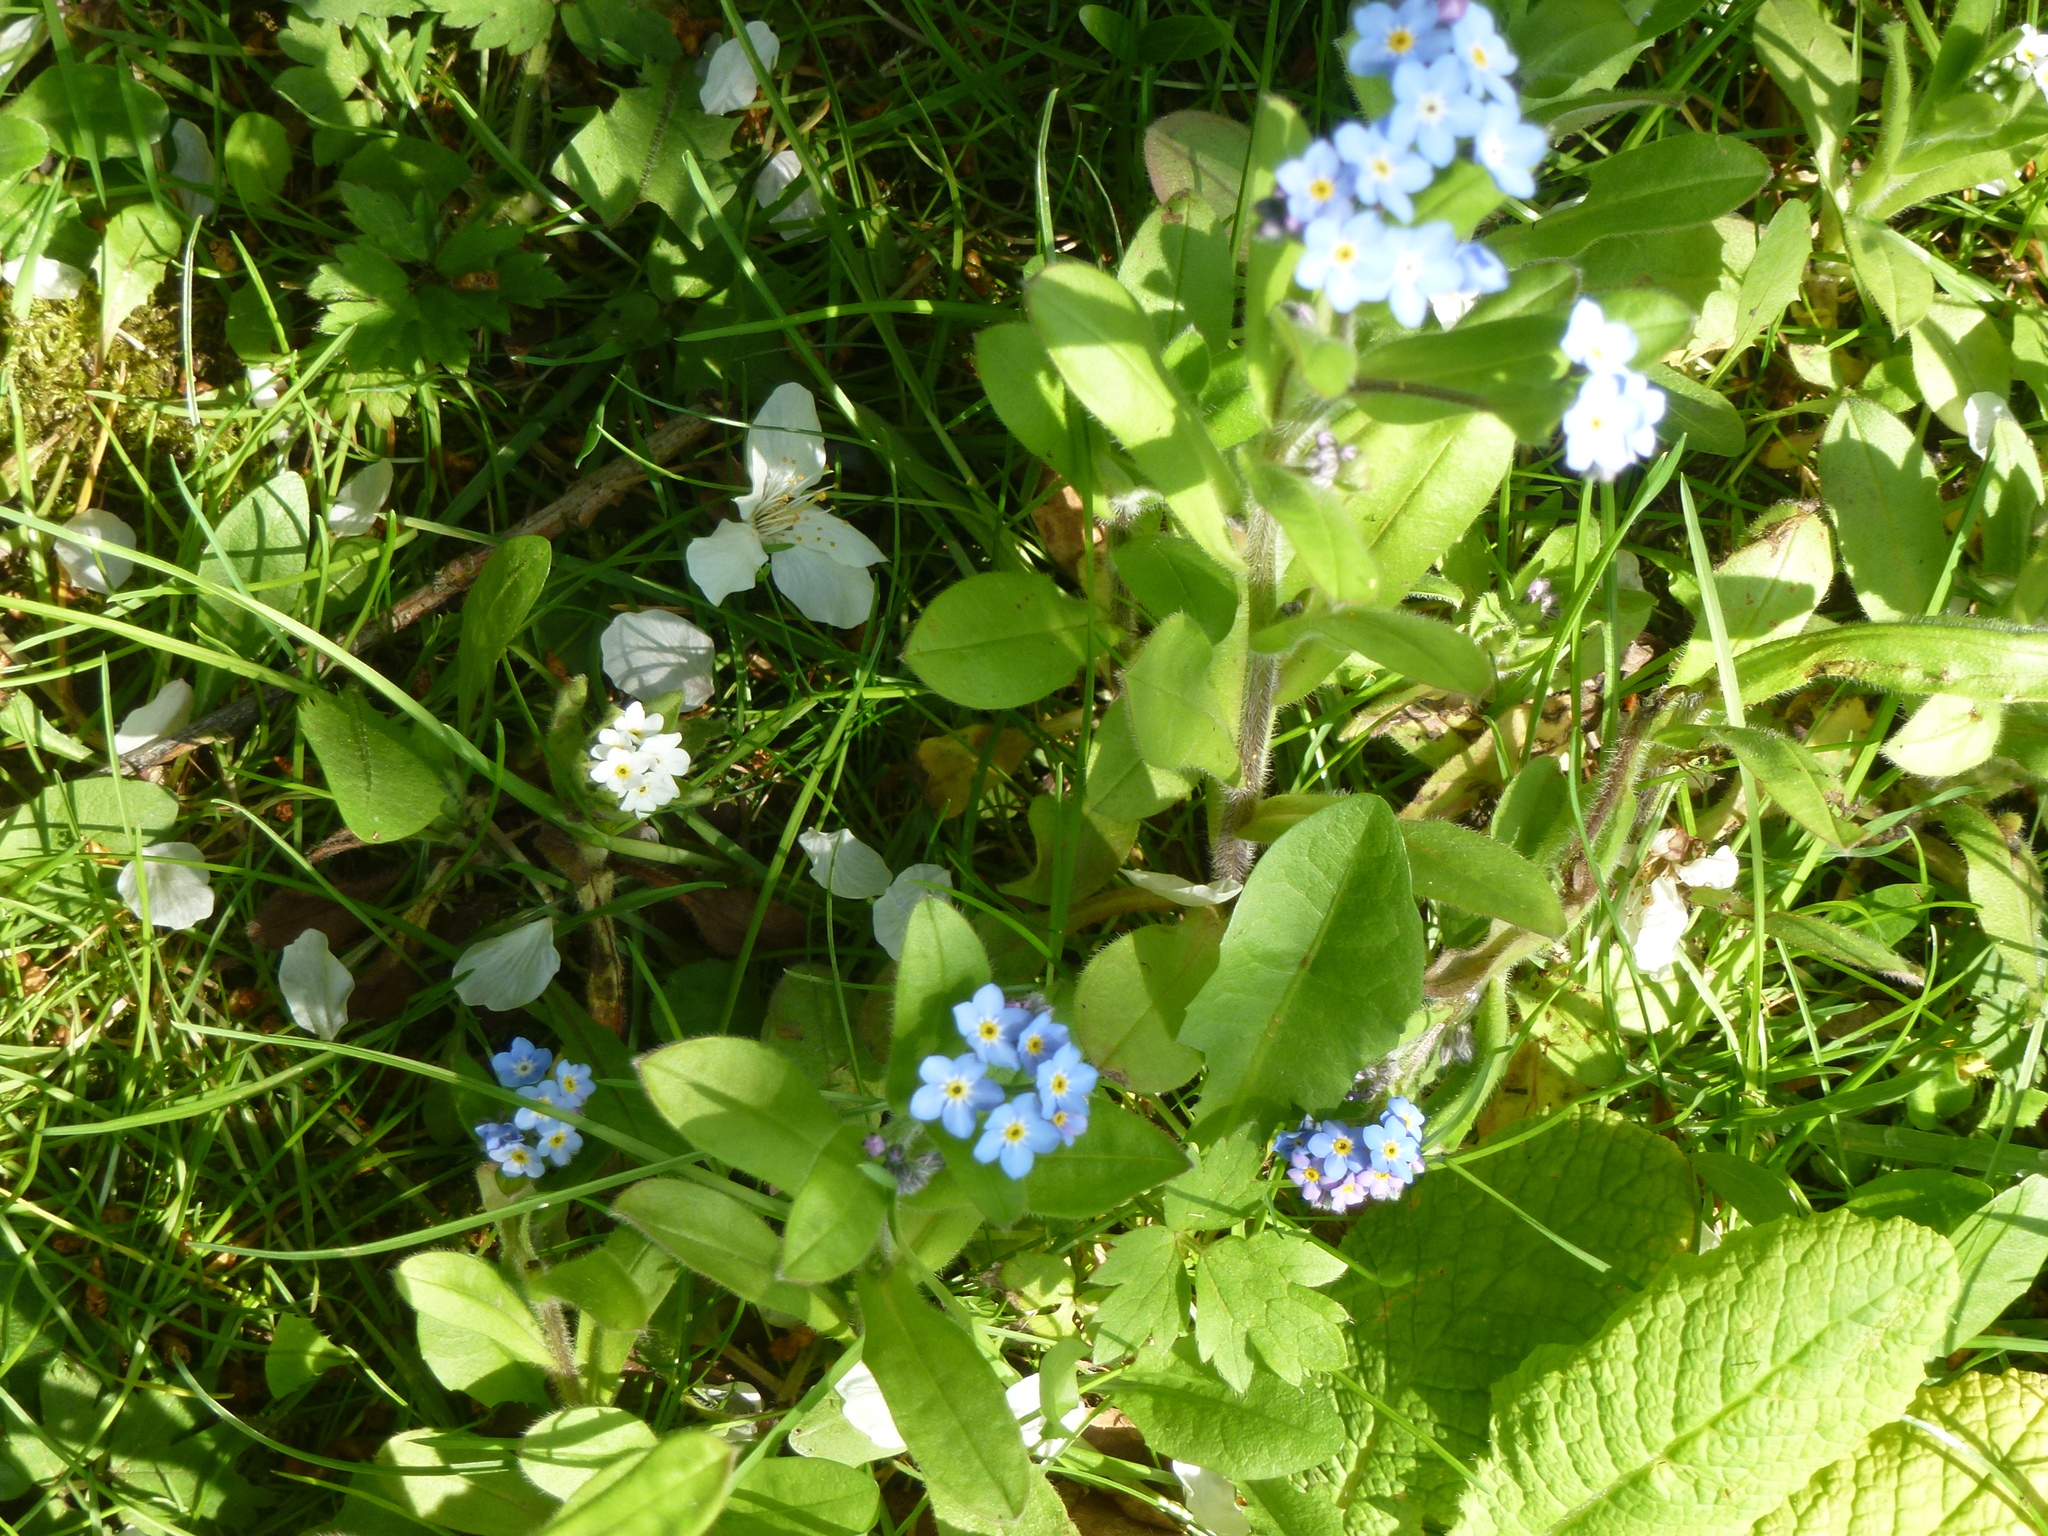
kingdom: Plantae
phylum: Tracheophyta
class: Magnoliopsida
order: Boraginales
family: Boraginaceae
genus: Myosotis
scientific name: Myosotis sylvatica
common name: Wood forget-me-not
